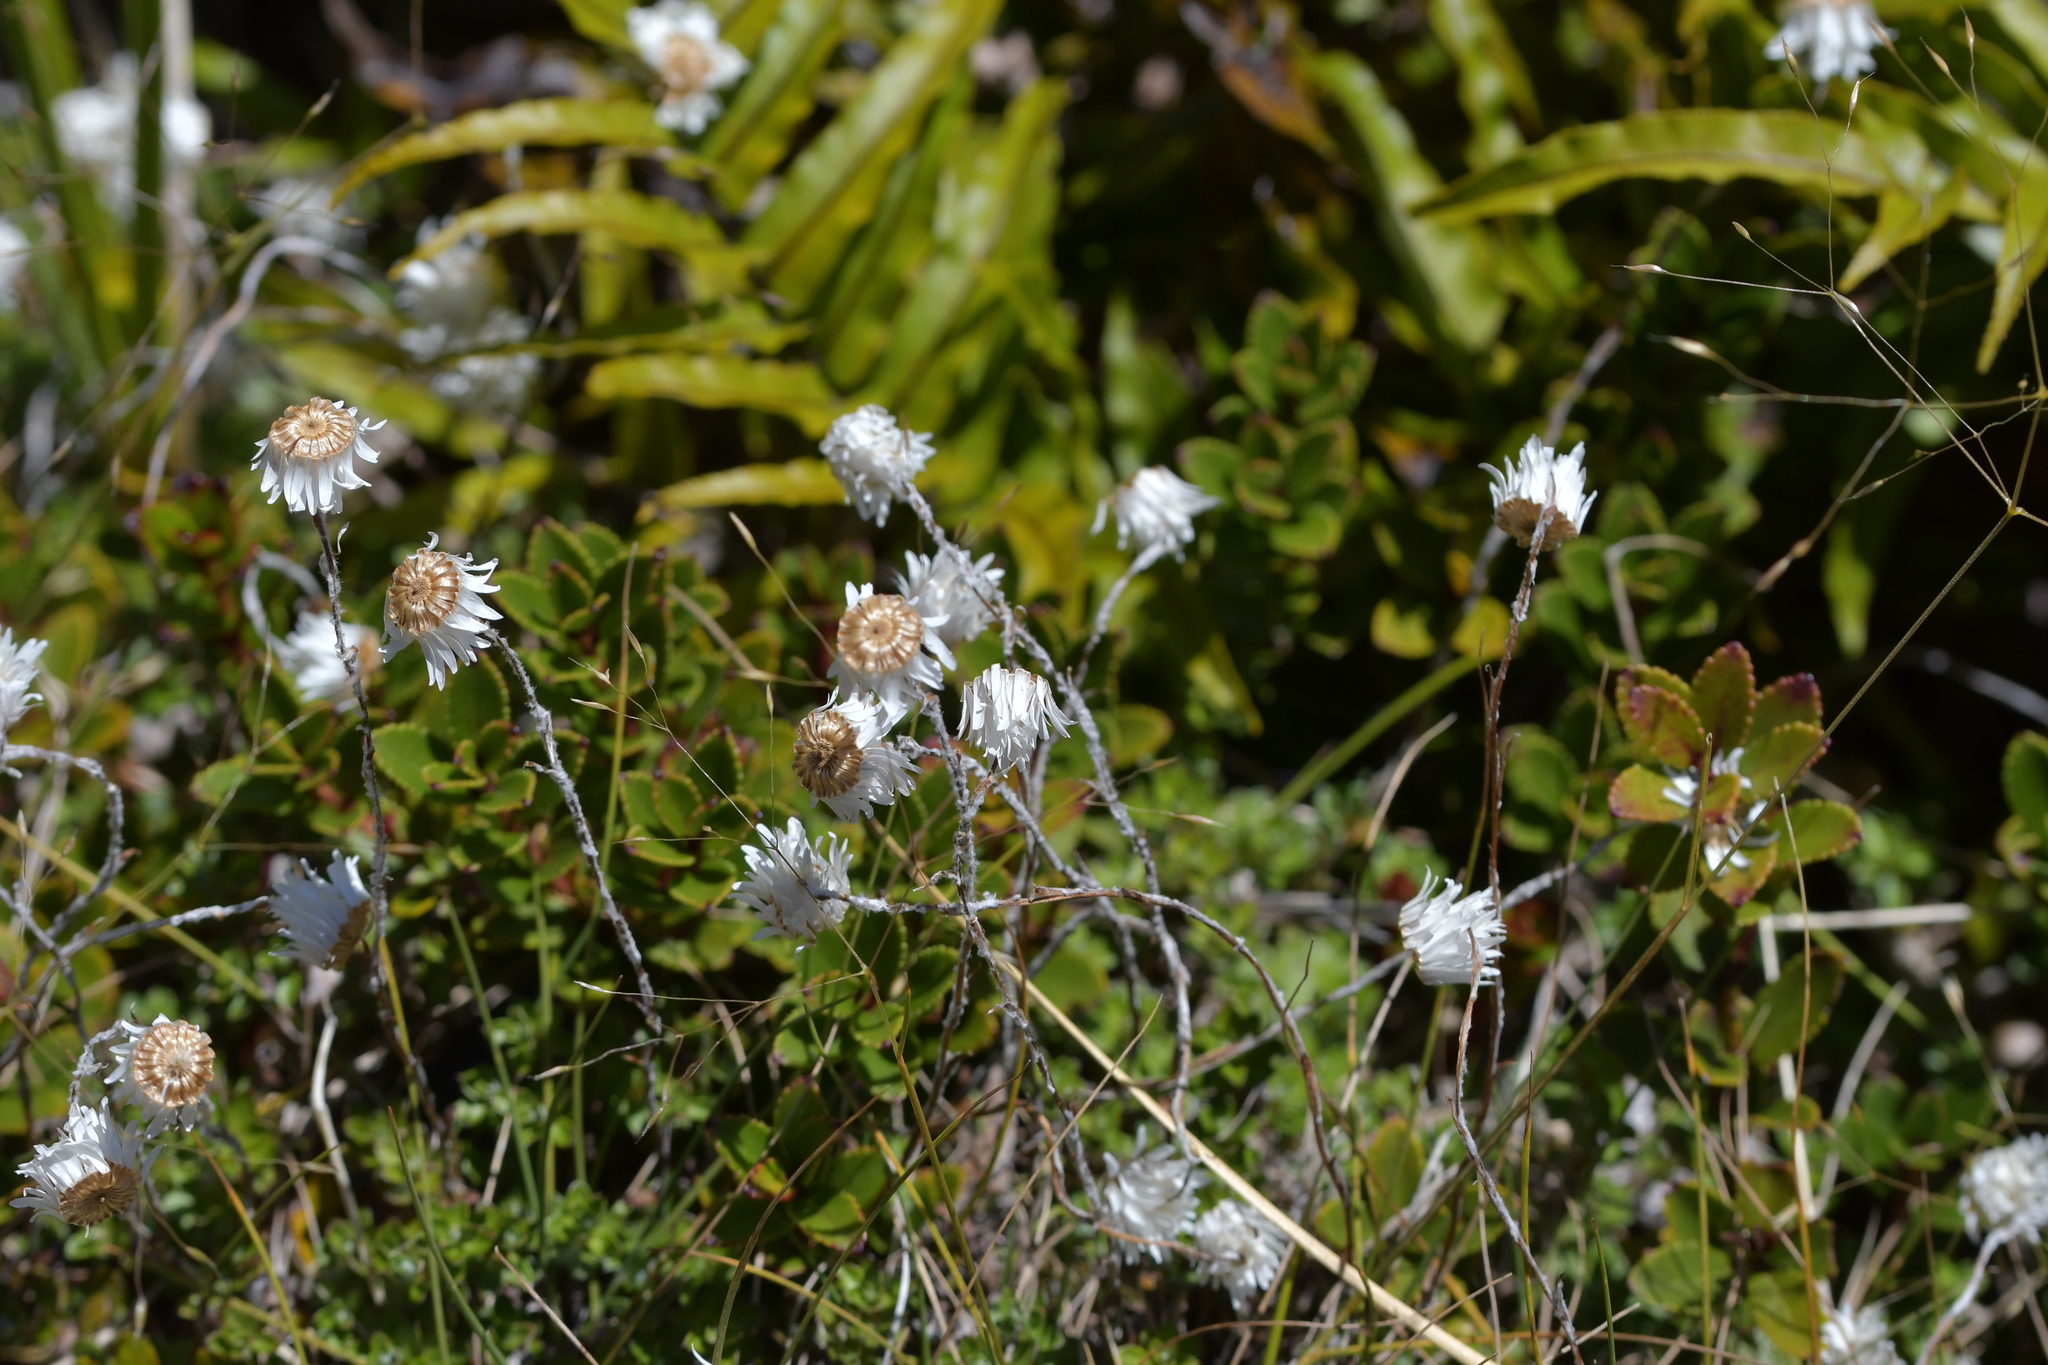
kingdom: Plantae
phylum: Tracheophyta
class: Magnoliopsida
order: Asterales
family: Asteraceae
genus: Anaphalioides
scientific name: Anaphalioides bellidioides
